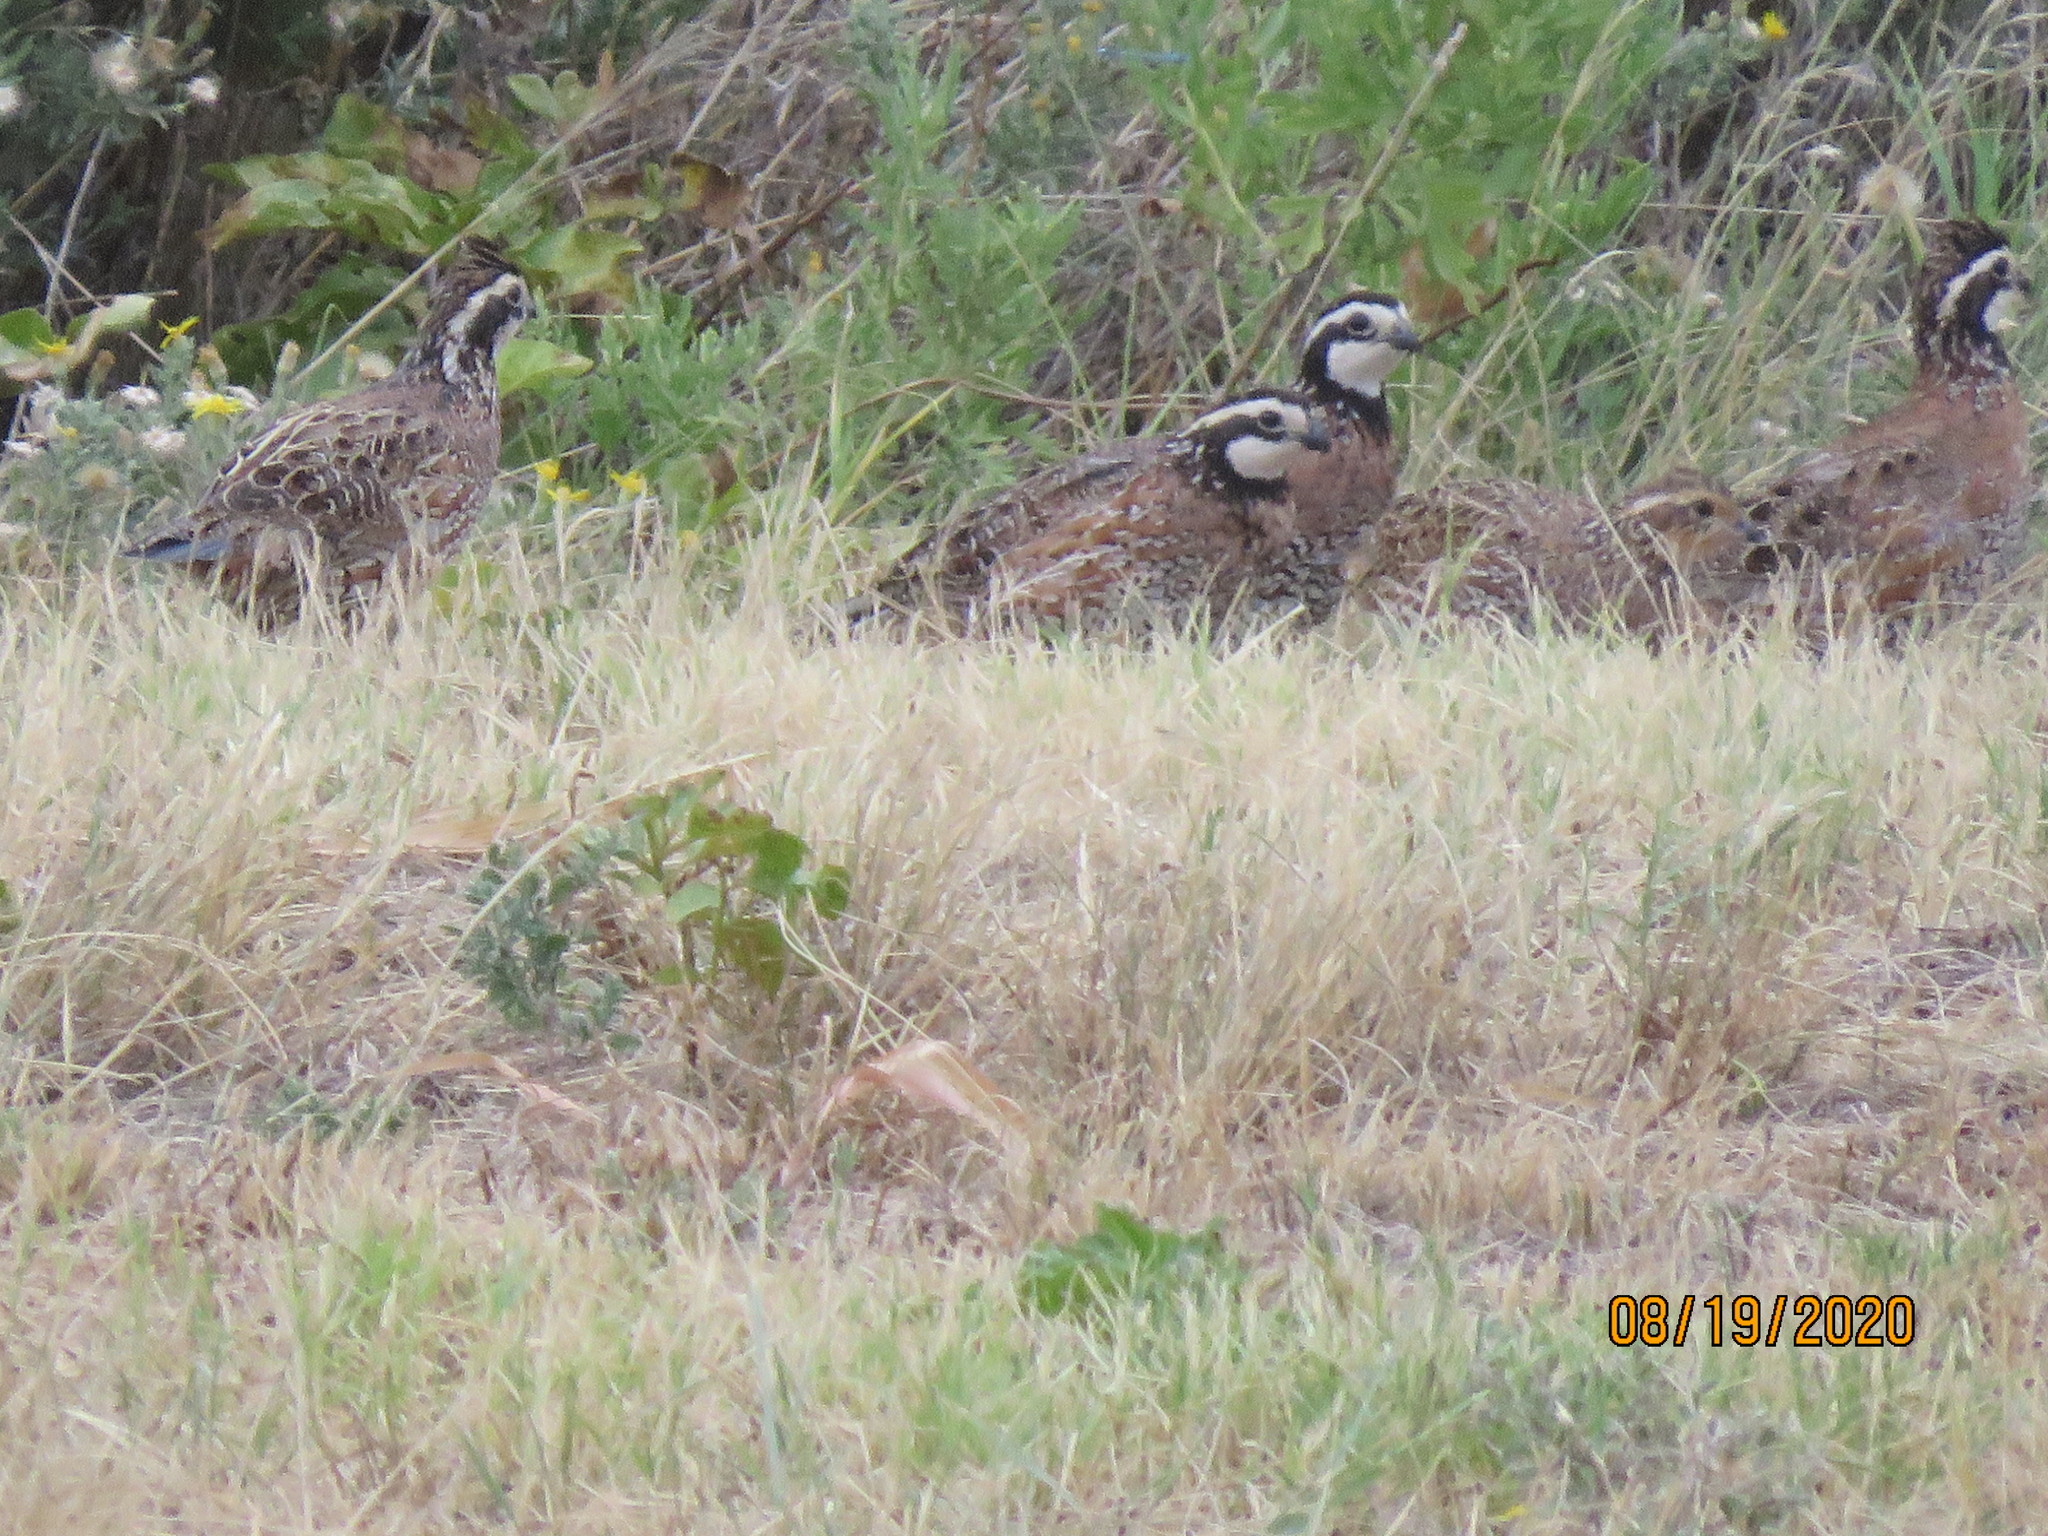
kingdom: Animalia
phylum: Chordata
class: Aves
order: Galliformes
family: Odontophoridae
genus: Colinus
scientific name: Colinus virginianus
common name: Northern bobwhite
